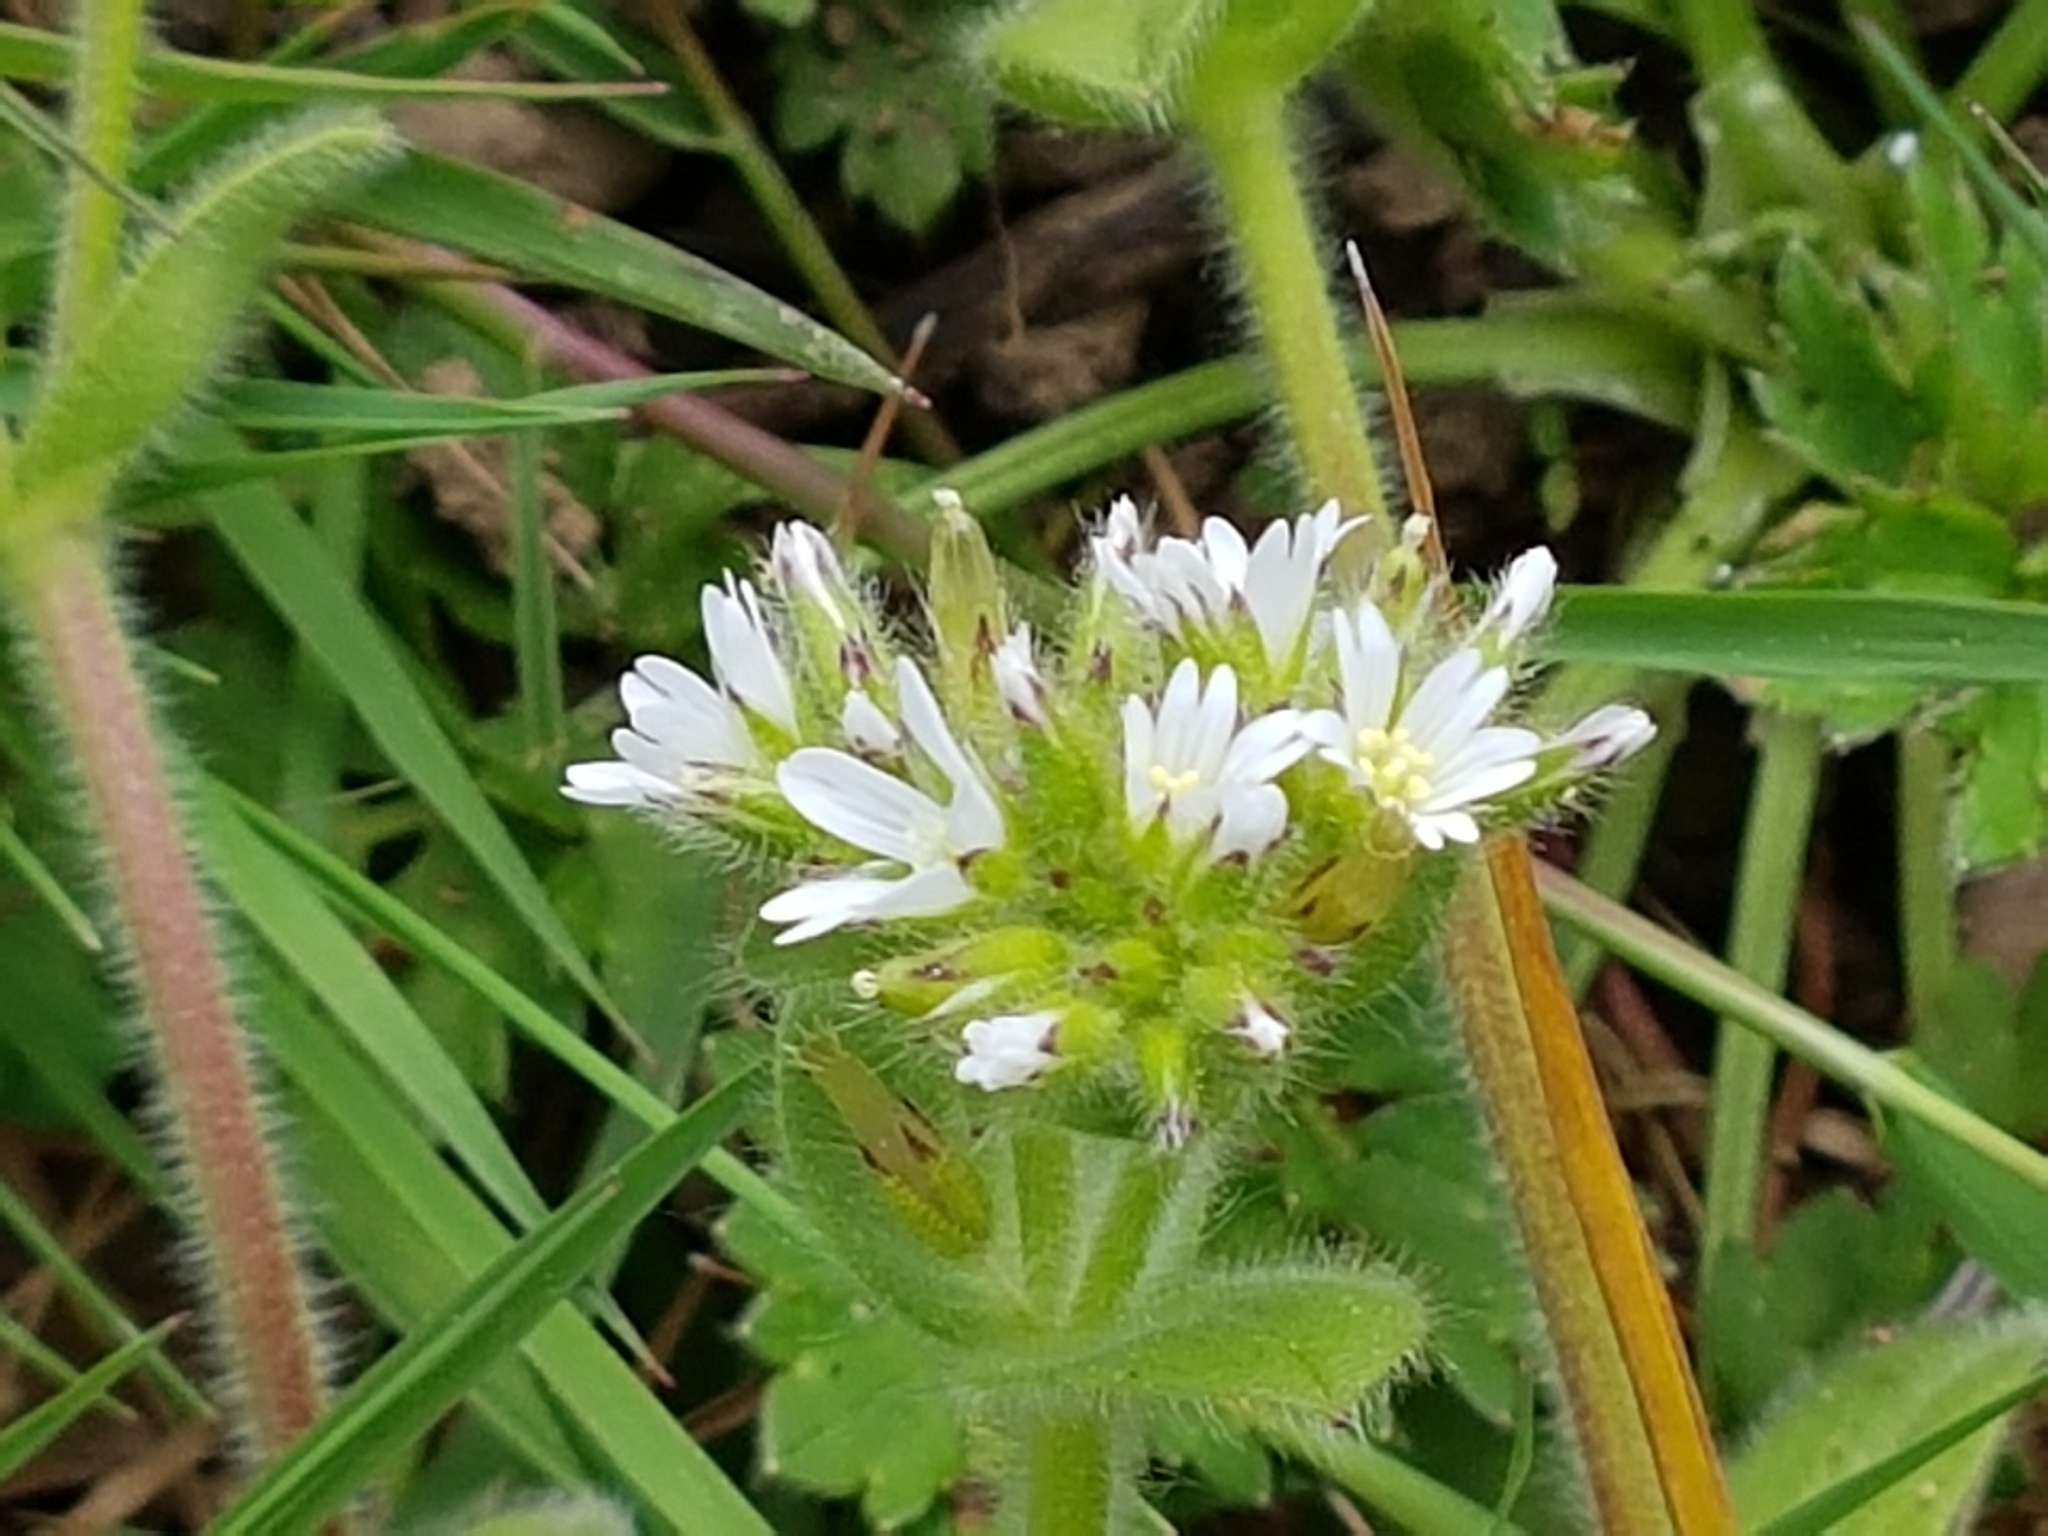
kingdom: Plantae
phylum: Tracheophyta
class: Magnoliopsida
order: Caryophyllales
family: Caryophyllaceae
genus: Cerastium
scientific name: Cerastium glomeratum
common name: Sticky chickweed
